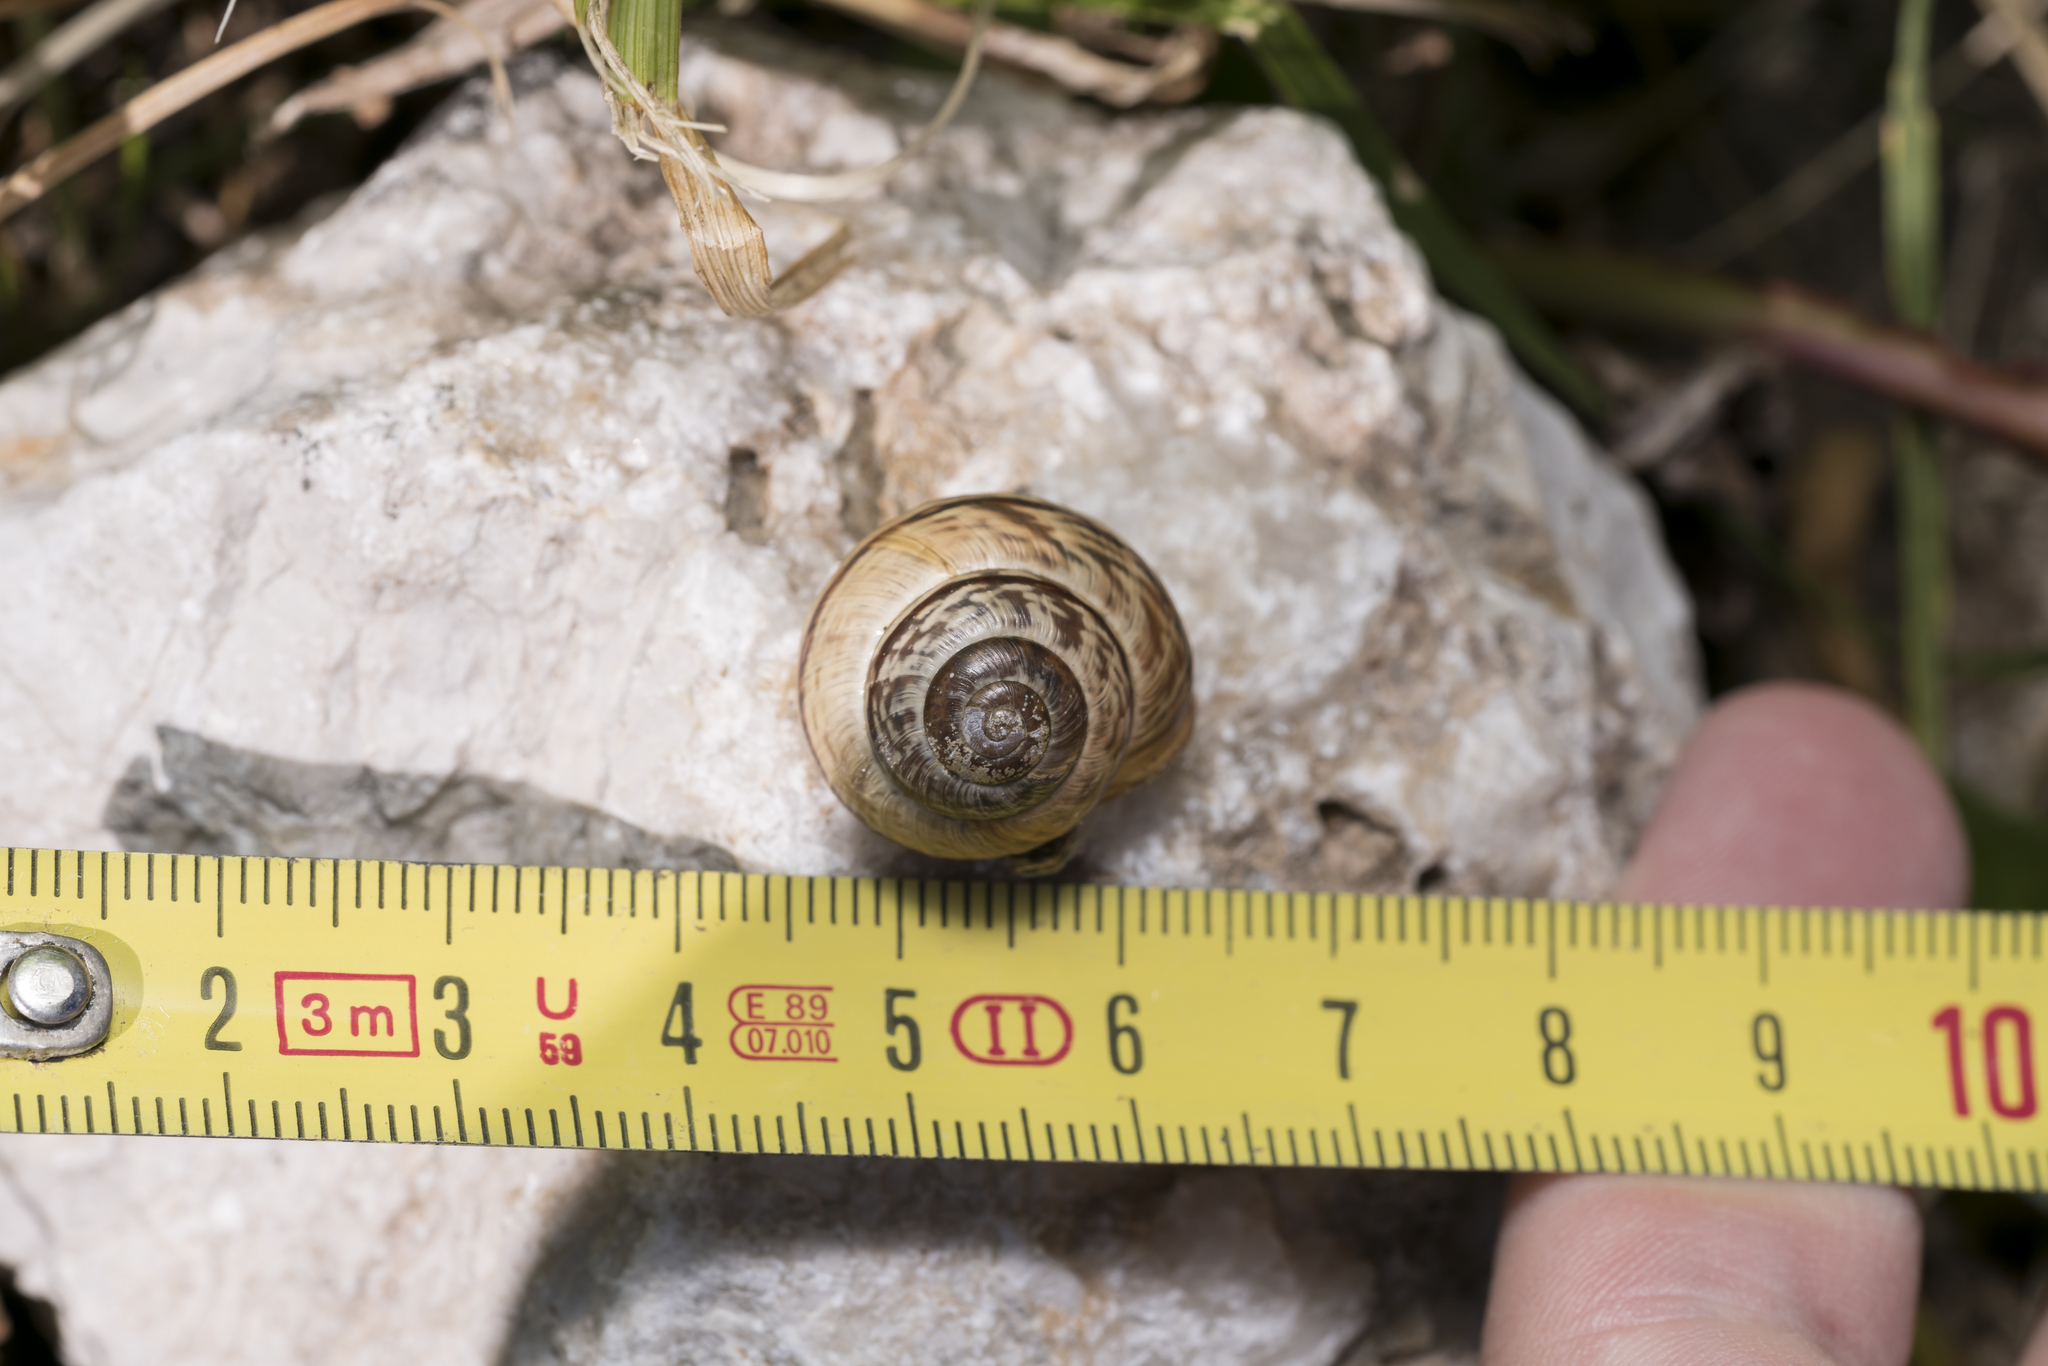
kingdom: Animalia
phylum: Mollusca
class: Gastropoda
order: Stylommatophora
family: Helicidae
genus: Arianta
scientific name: Arianta arbustorum
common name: Copse snail
